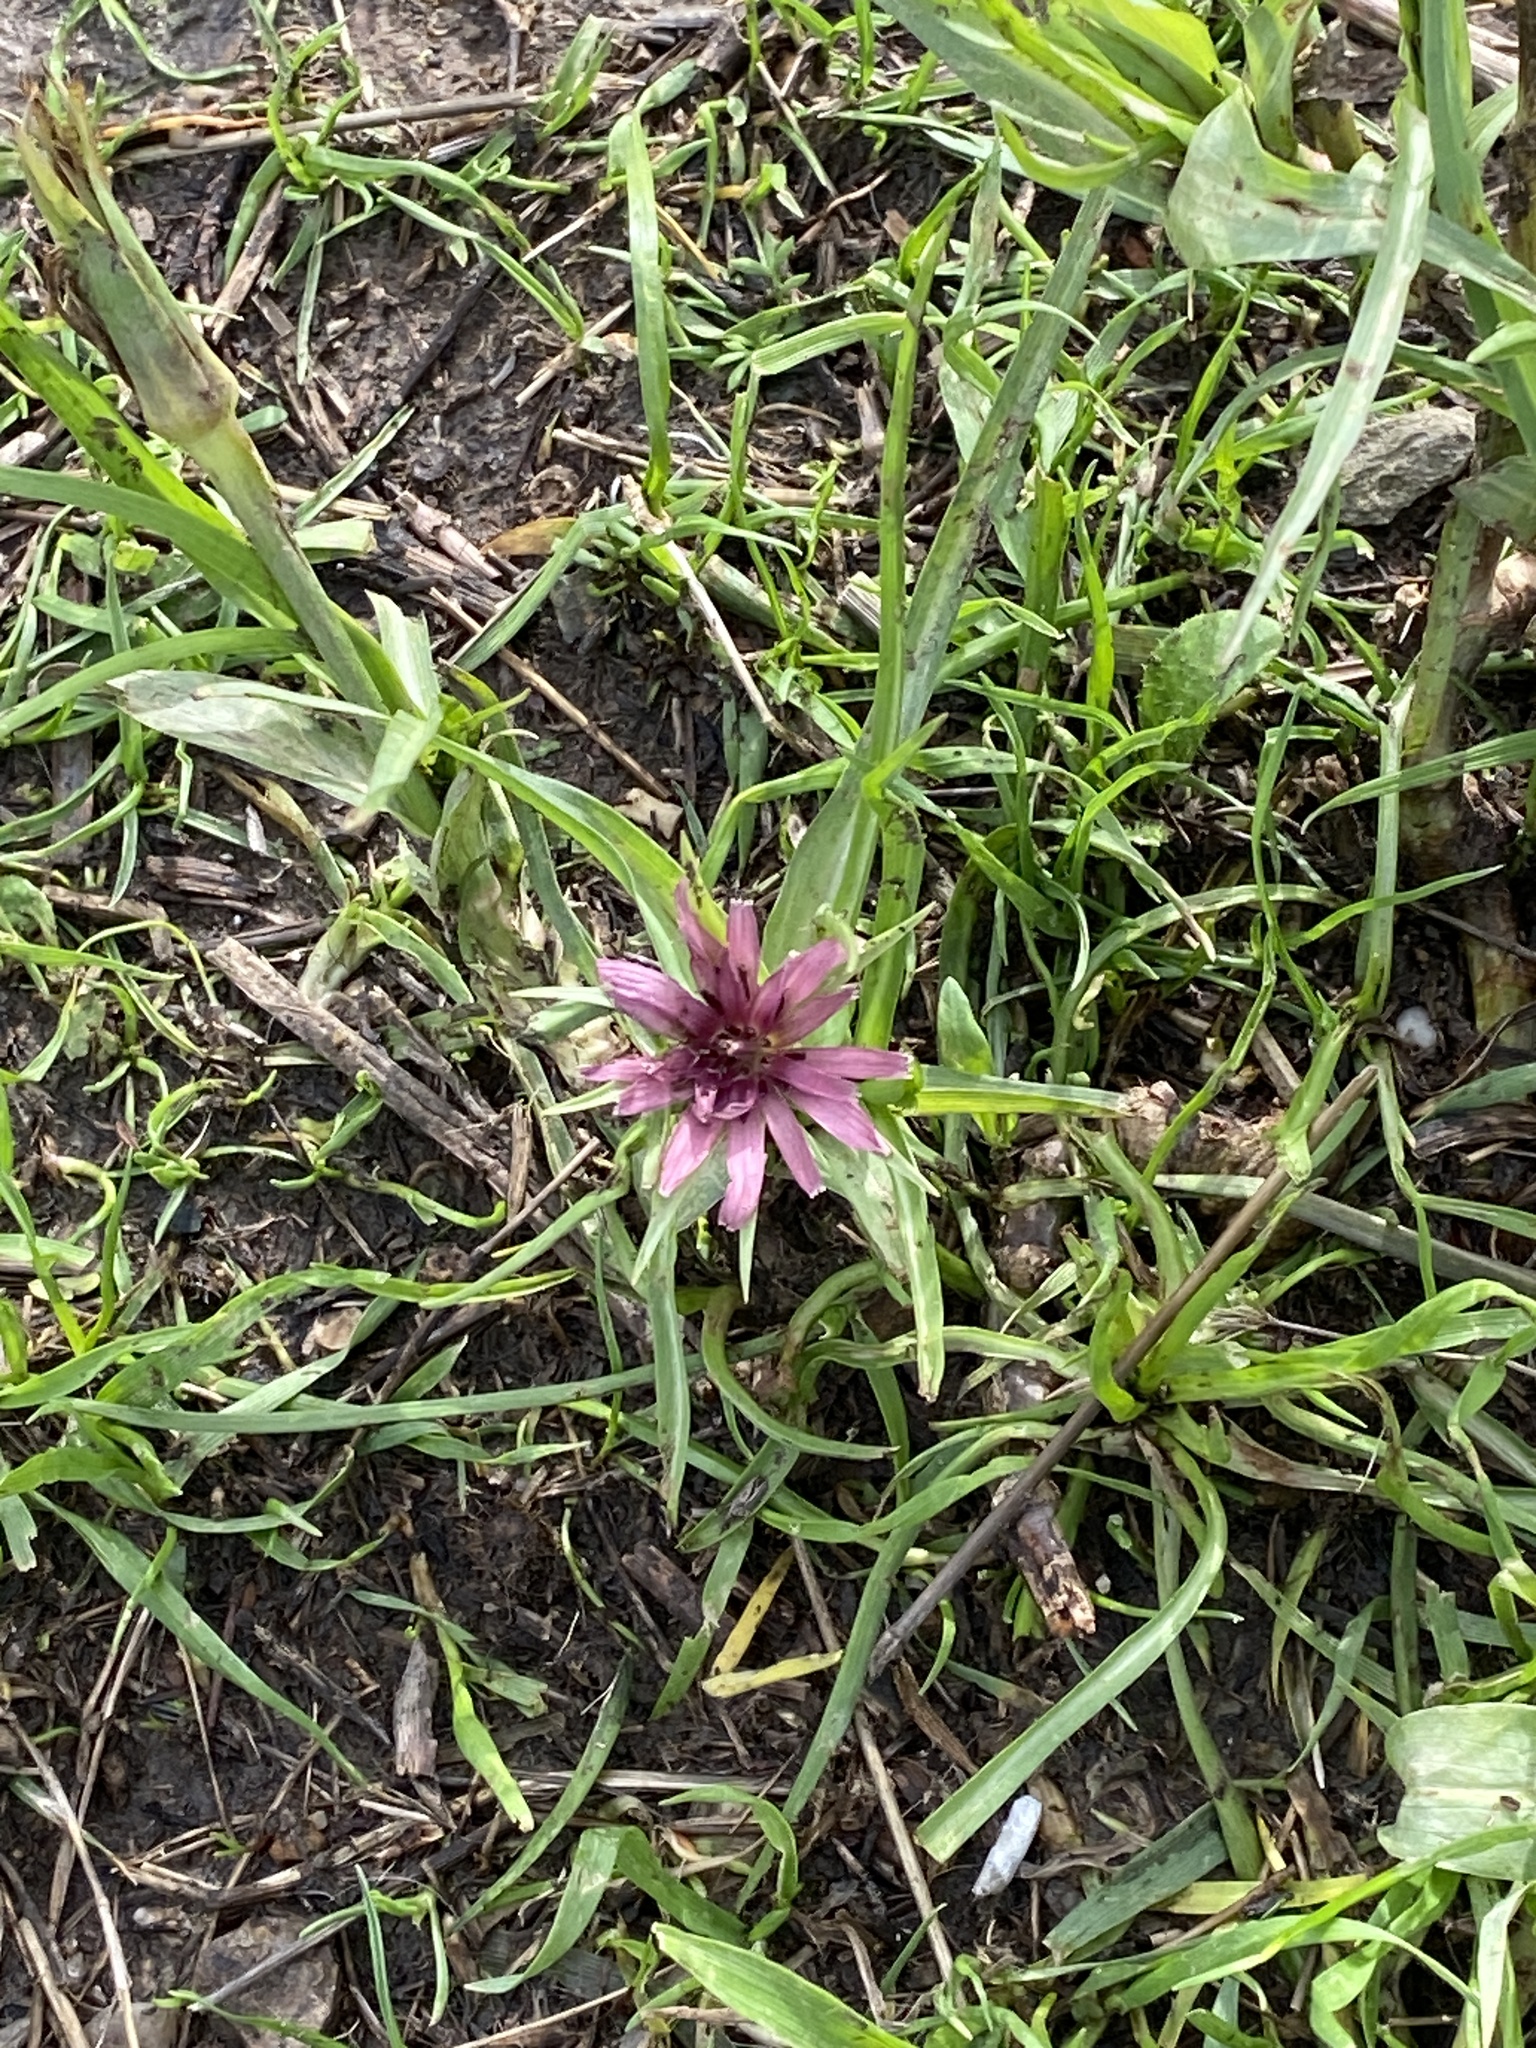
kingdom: Plantae
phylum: Tracheophyta
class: Magnoliopsida
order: Asterales
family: Asteraceae
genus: Tragopogon
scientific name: Tragopogon porrifolius
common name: Salsify
